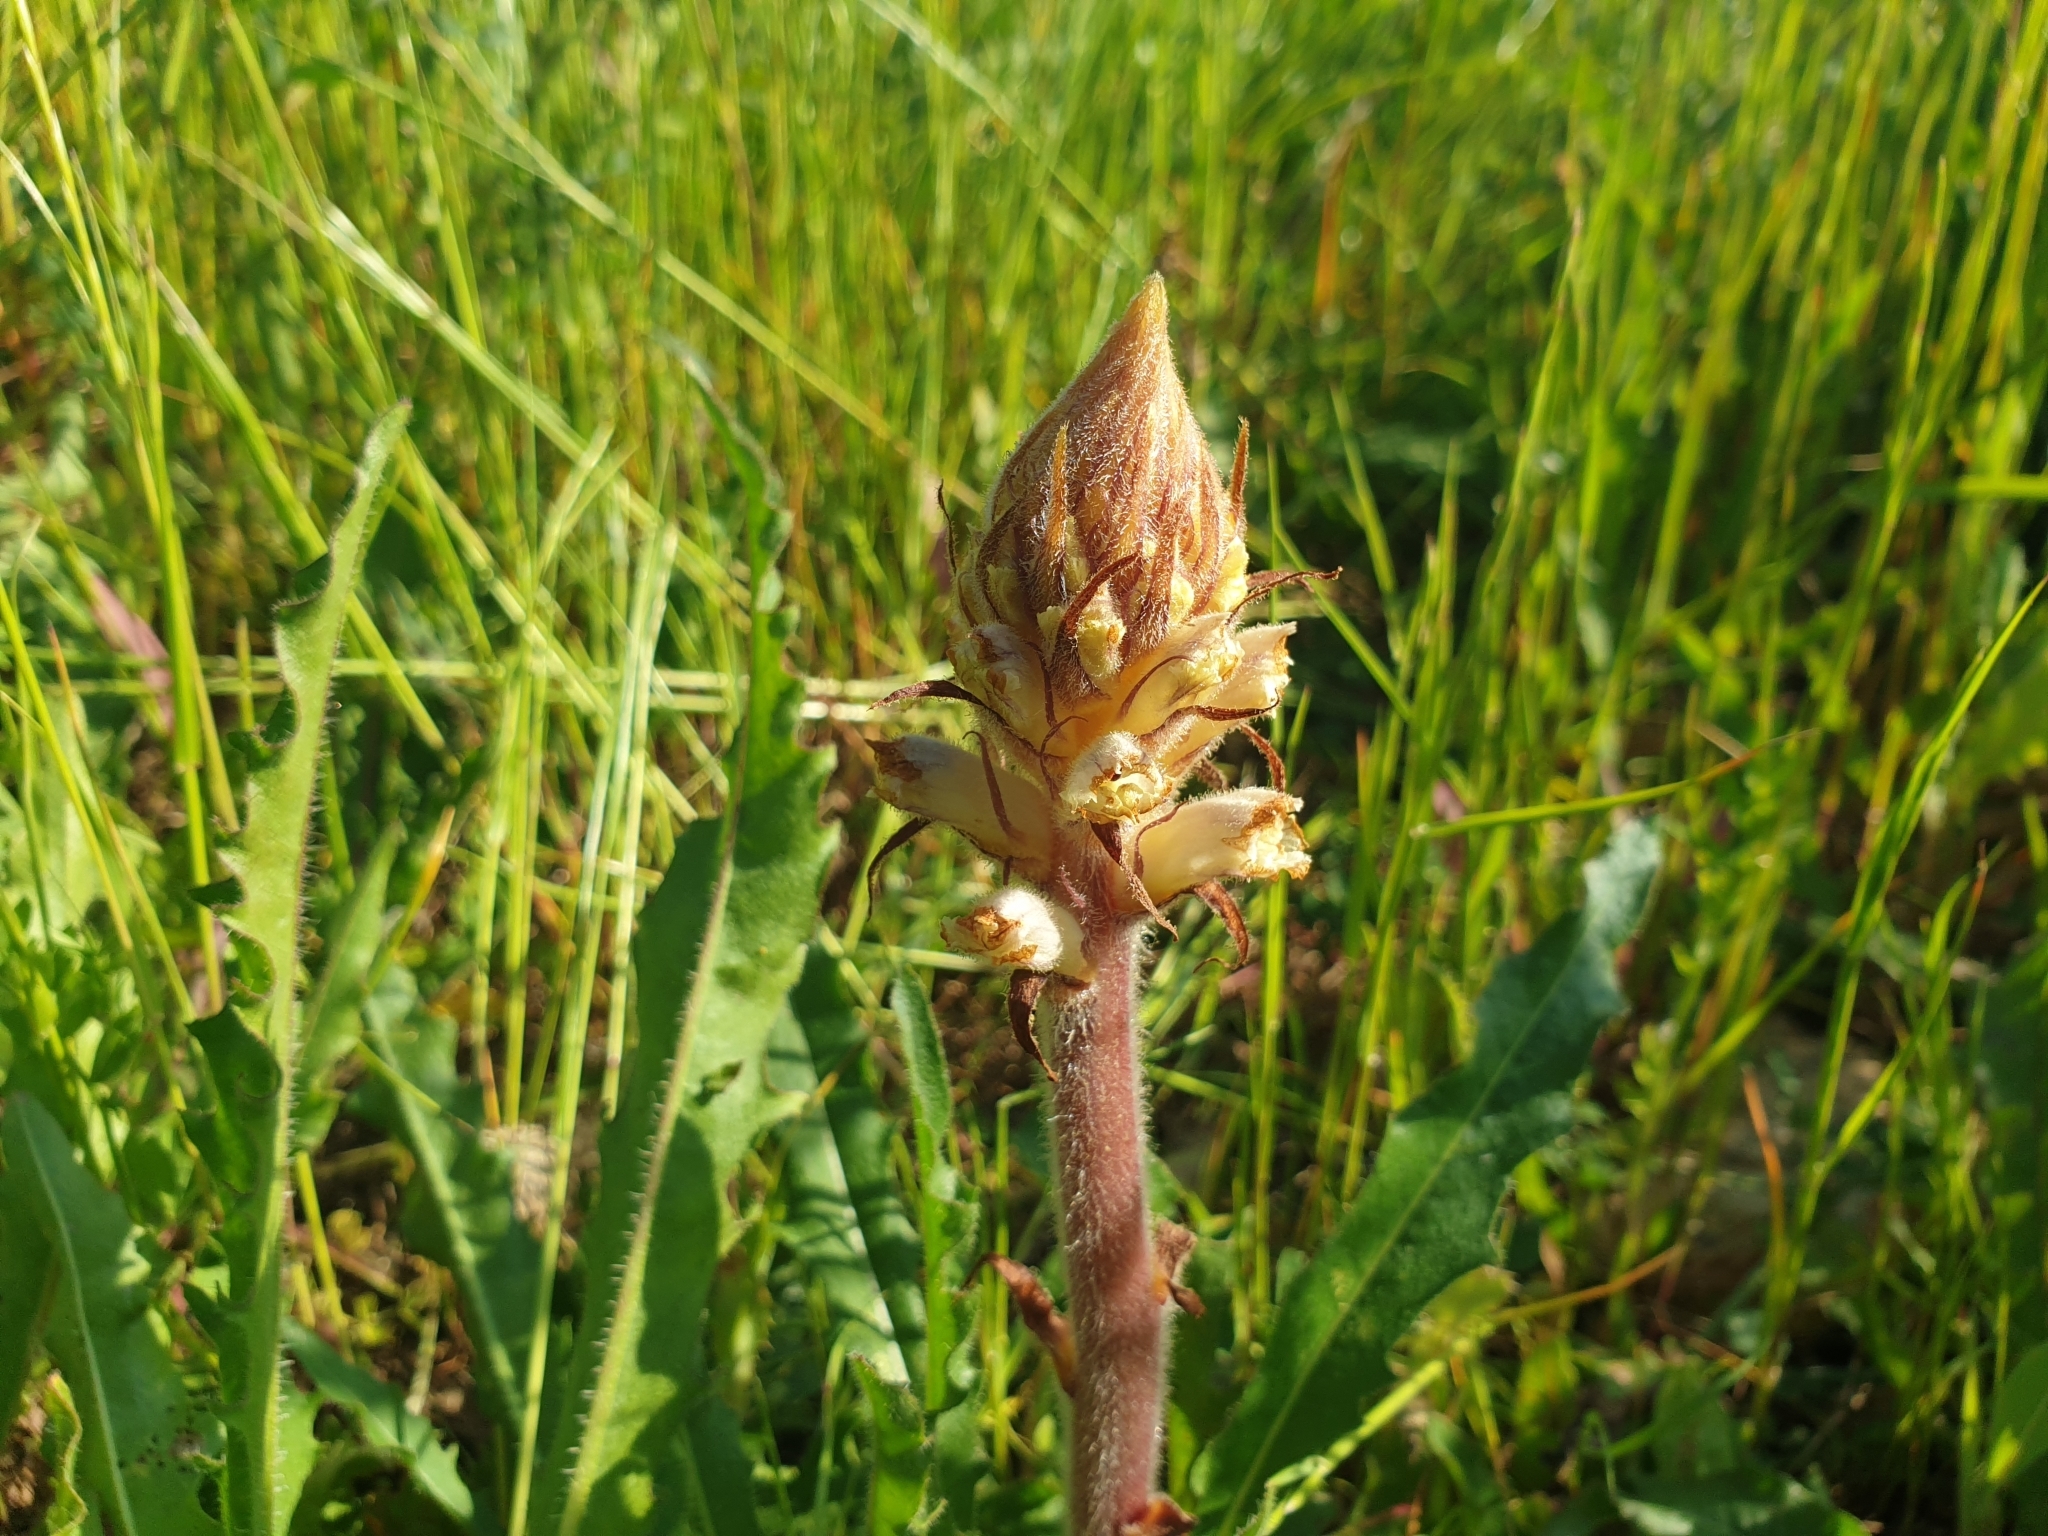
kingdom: Plantae
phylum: Tracheophyta
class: Magnoliopsida
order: Lamiales
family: Orobanchaceae
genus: Orobanche
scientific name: Orobanche picridis
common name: Oxtongue broomrape
